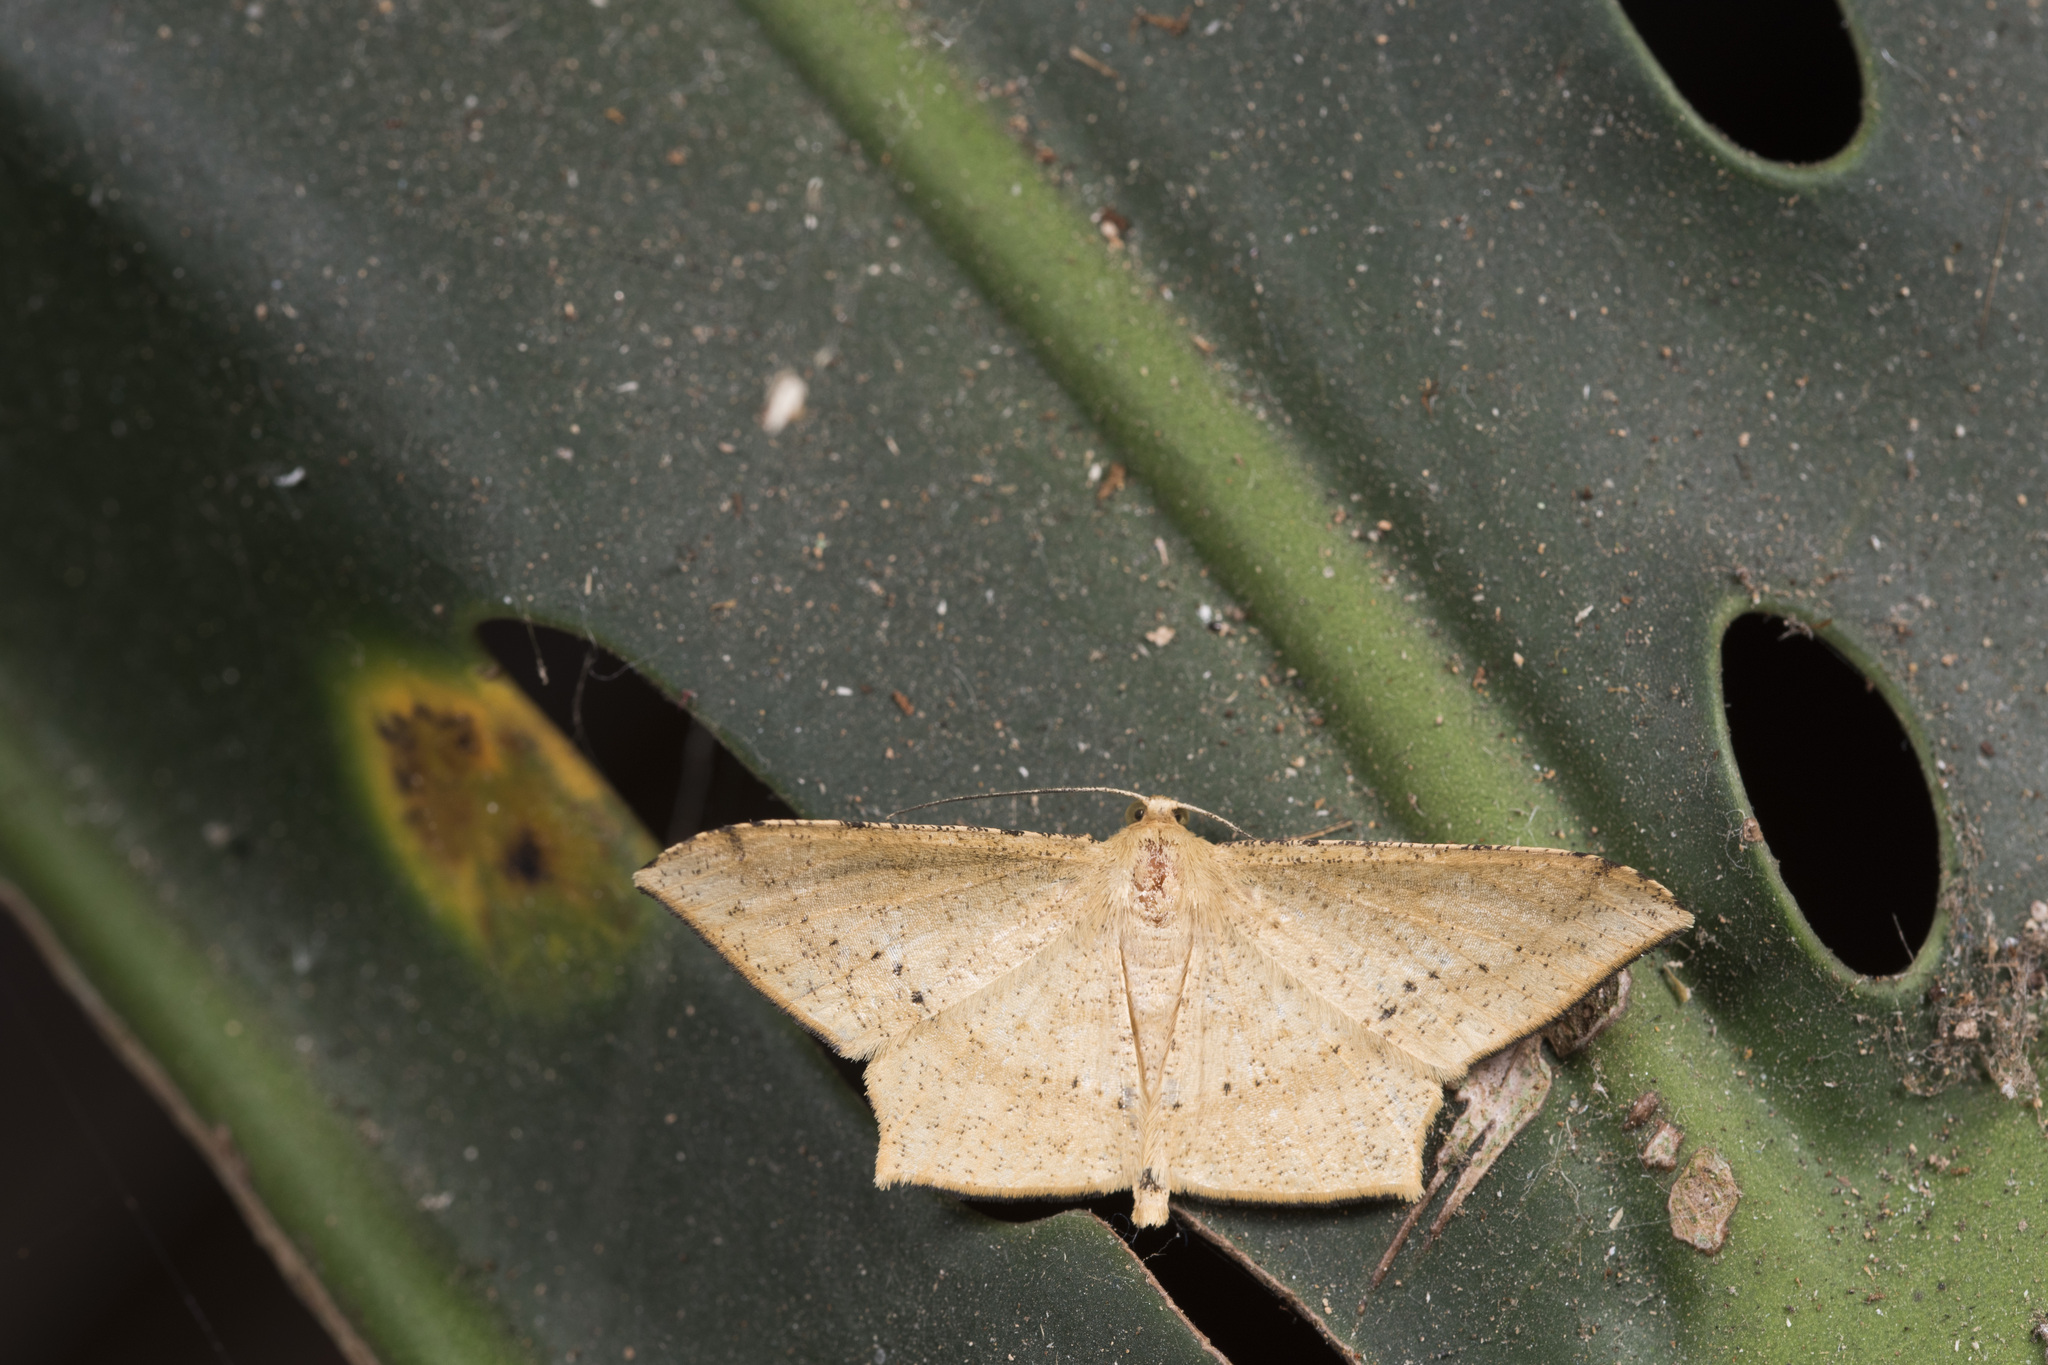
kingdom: Animalia
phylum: Arthropoda
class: Insecta
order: Lepidoptera
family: Geometridae
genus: Krananda
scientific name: Krananda falcata
